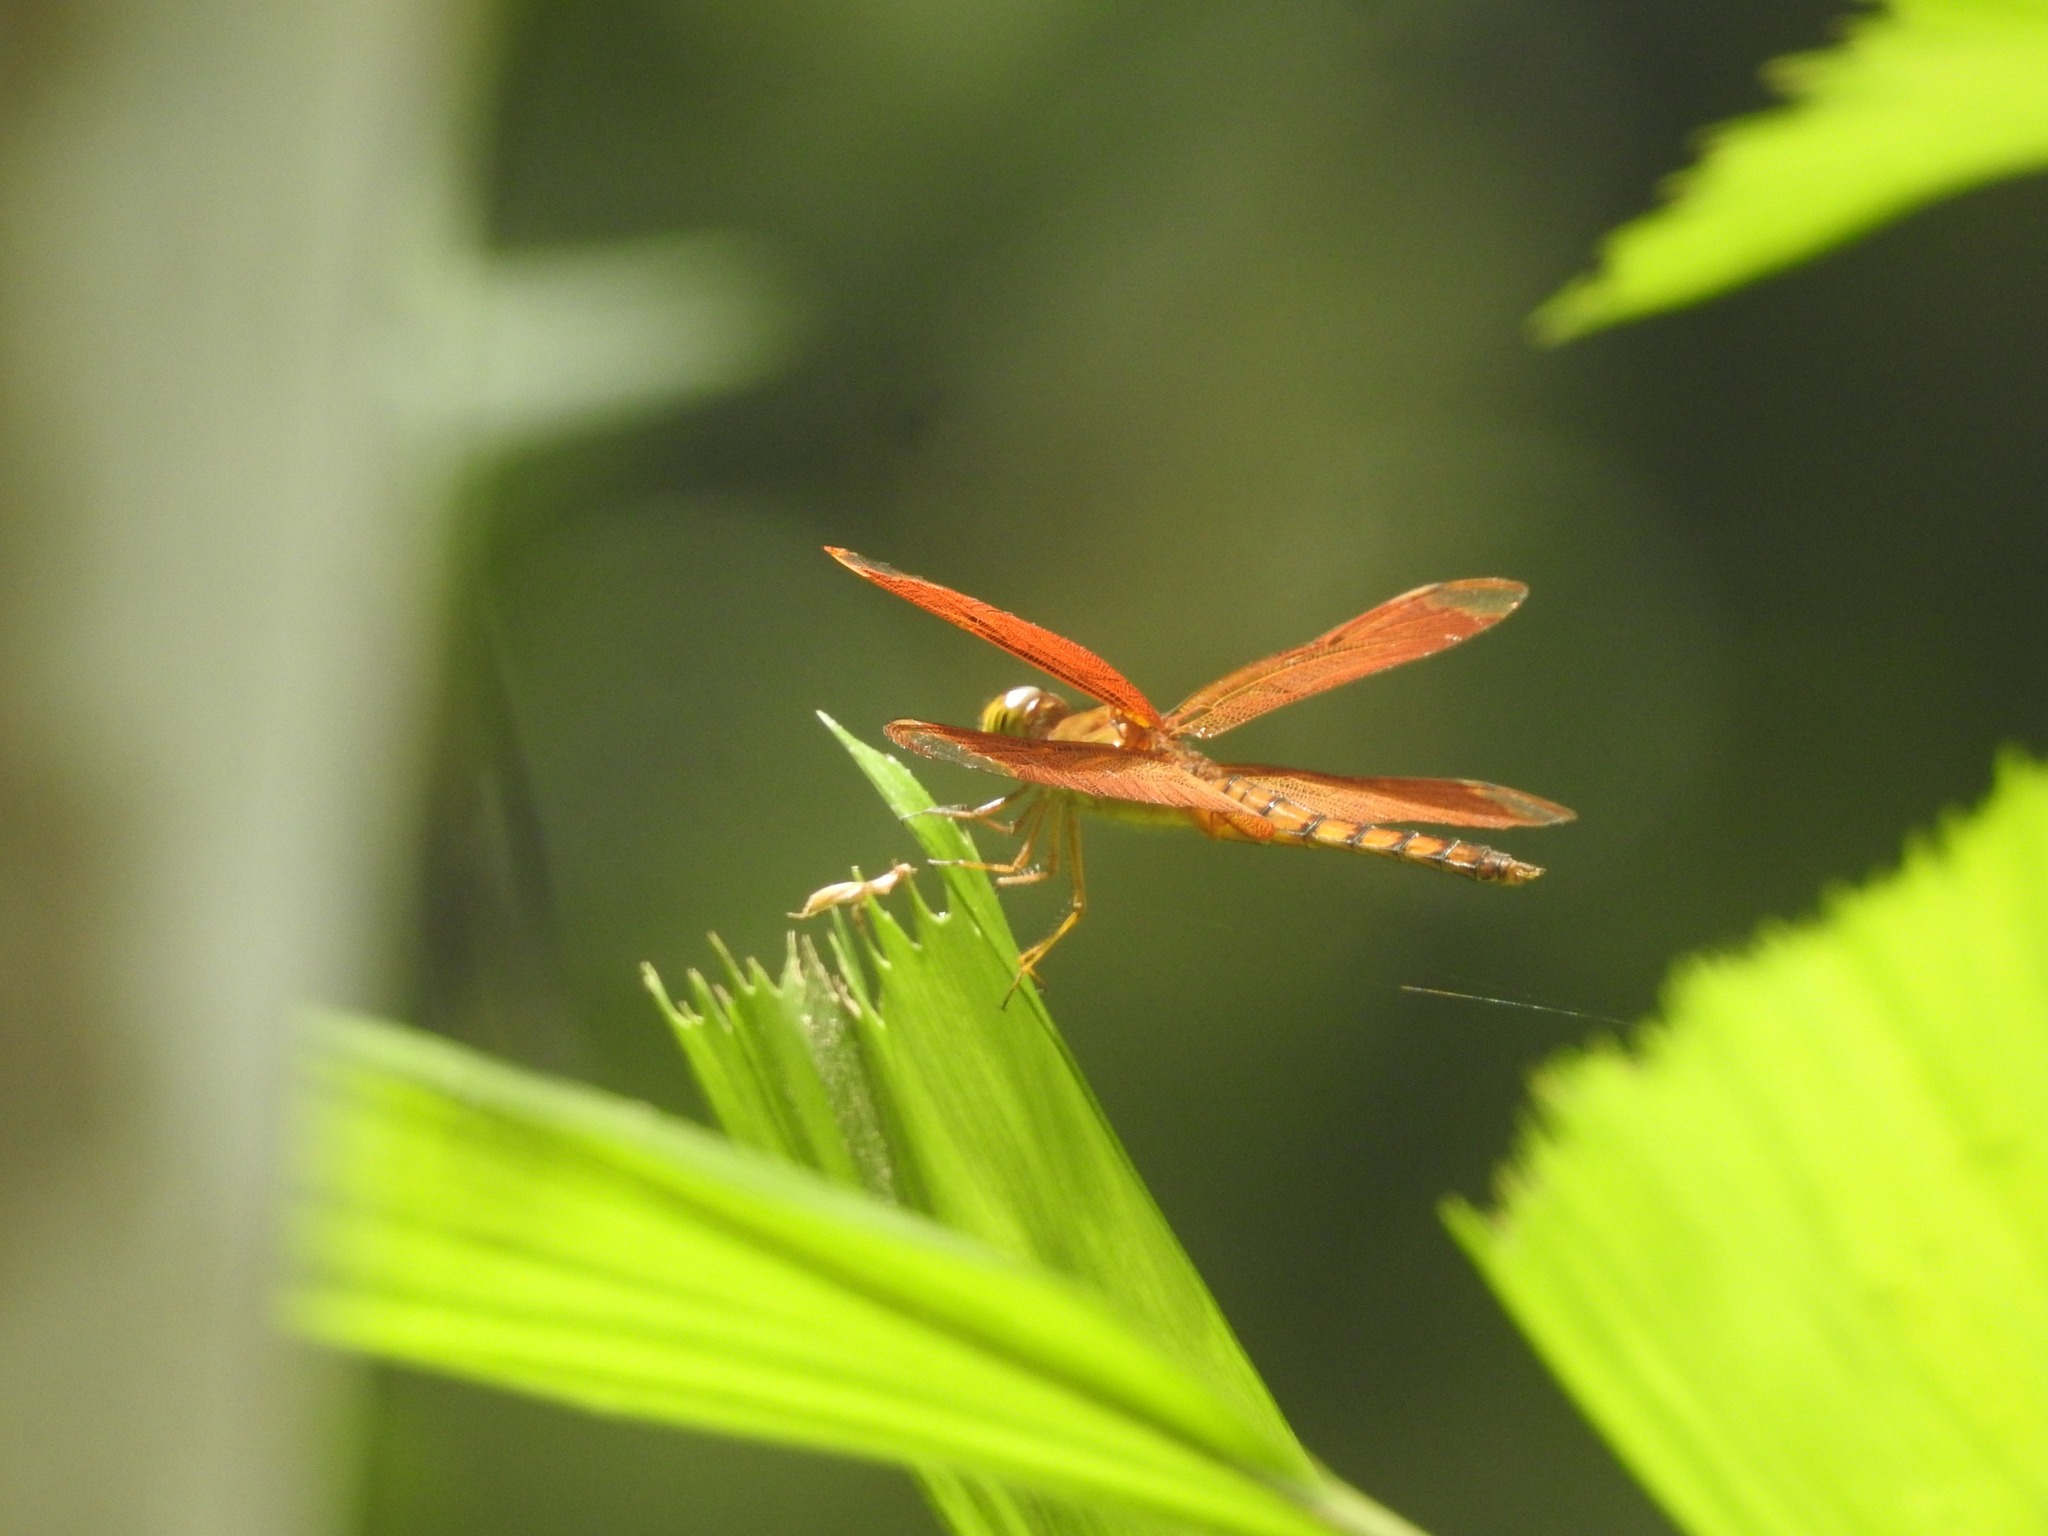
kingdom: Animalia
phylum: Arthropoda
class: Insecta
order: Odonata
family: Libellulidae
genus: Neurothemis
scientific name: Neurothemis fulvia
